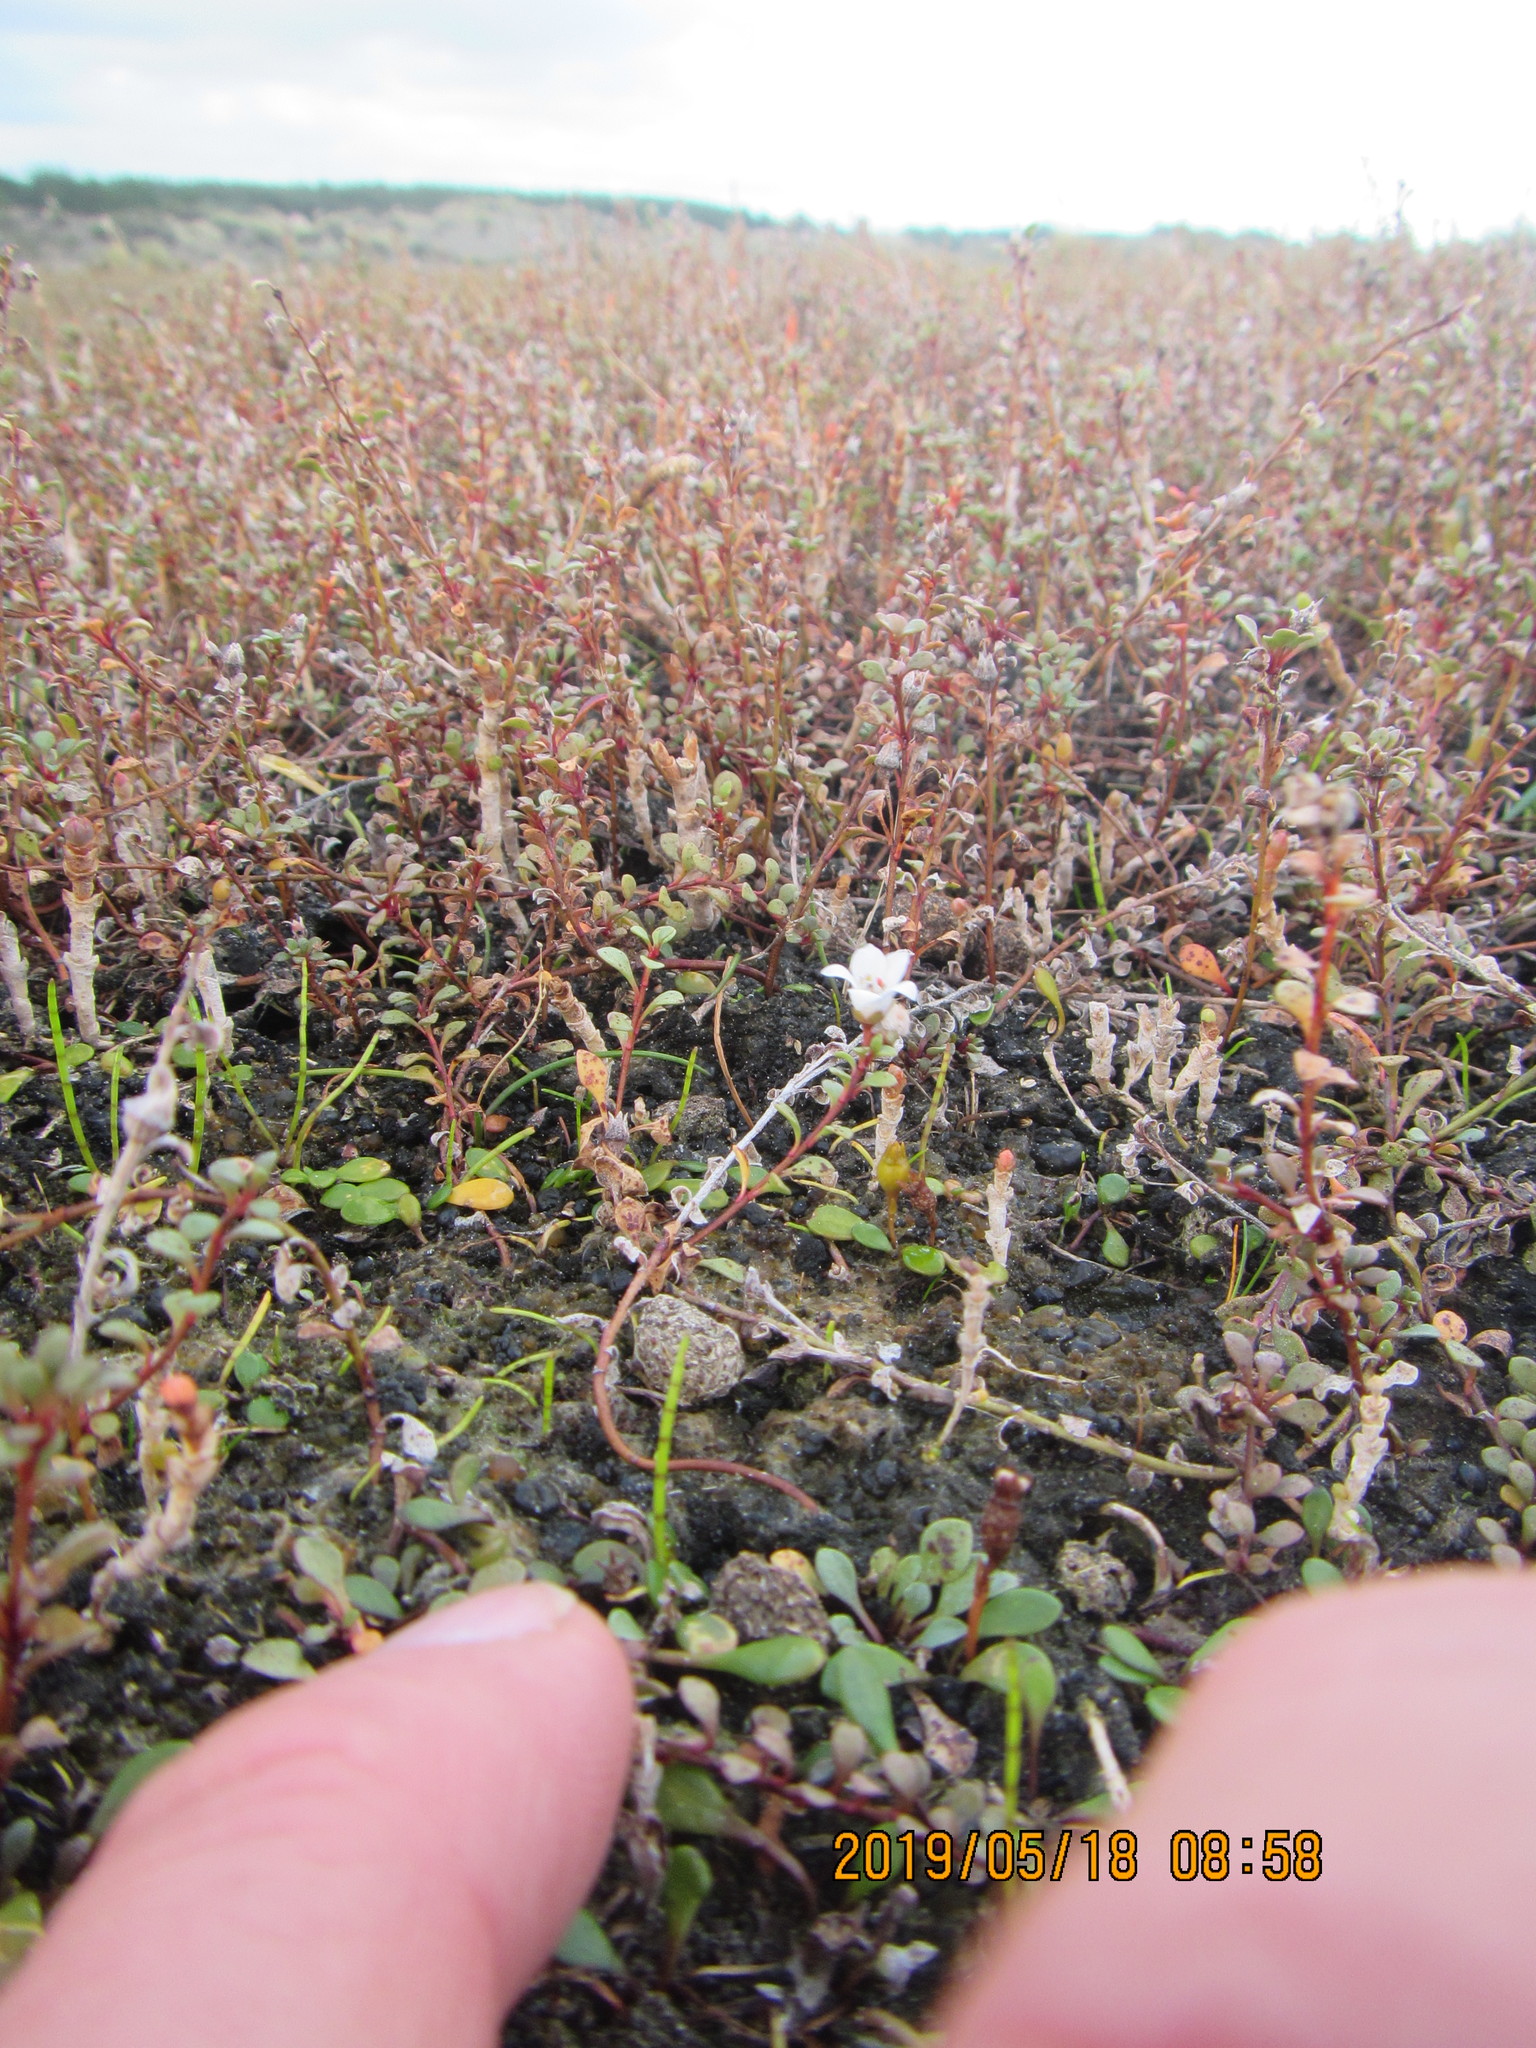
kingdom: Plantae
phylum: Tracheophyta
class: Magnoliopsida
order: Ericales
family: Primulaceae
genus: Samolus
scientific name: Samolus repens
